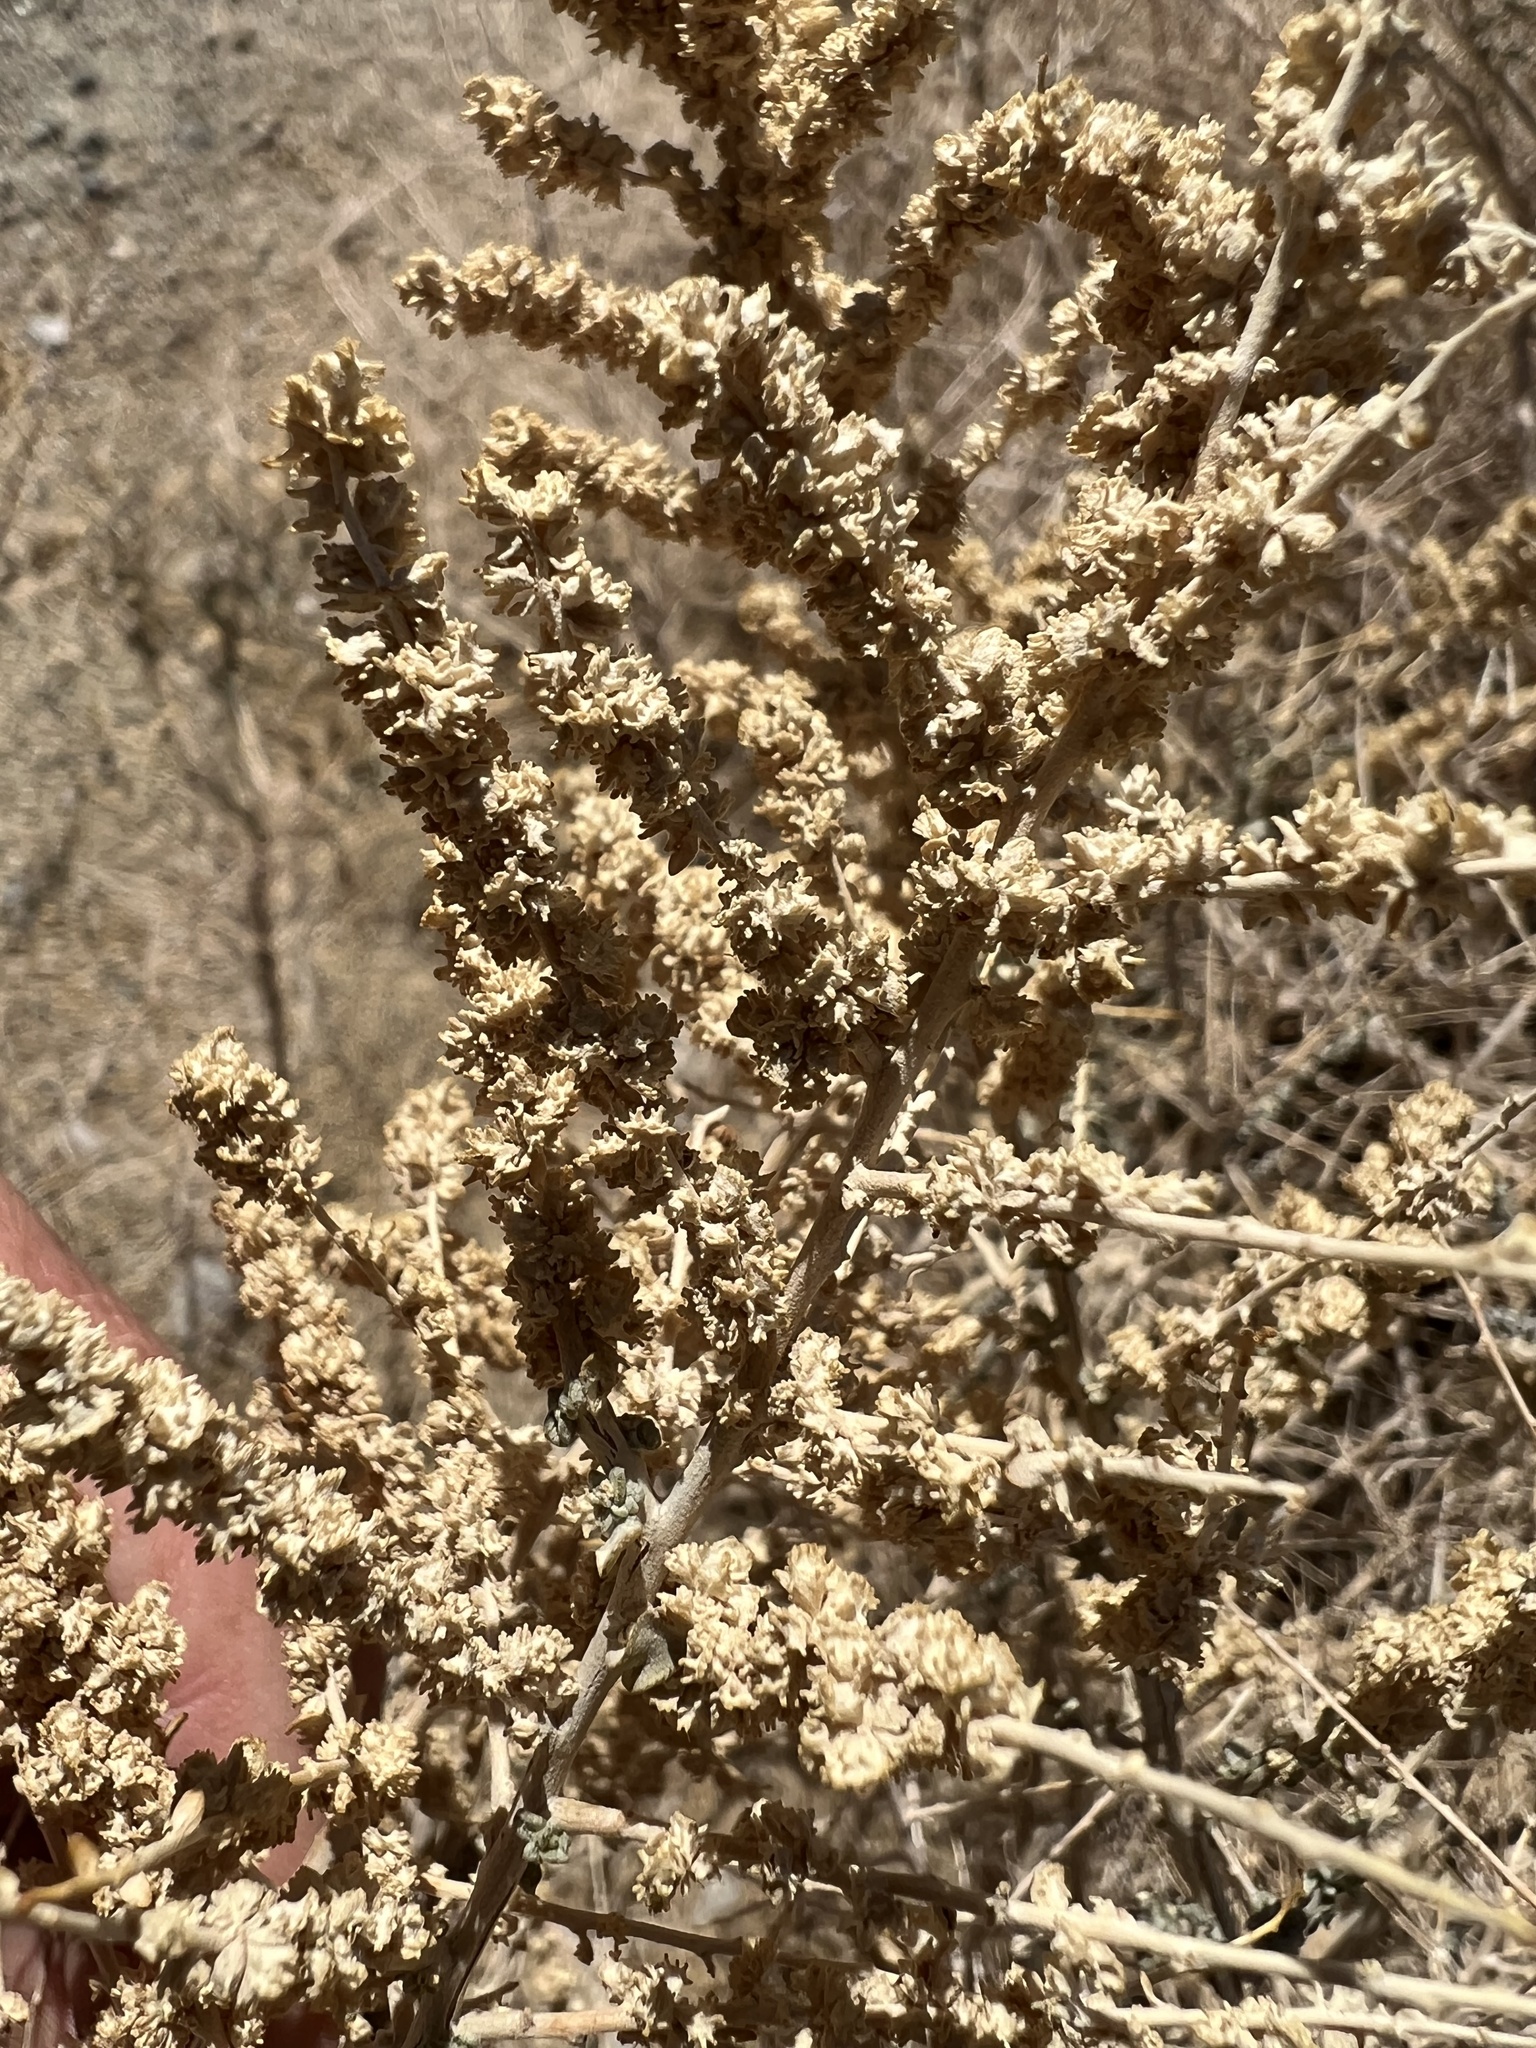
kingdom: Plantae
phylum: Tracheophyta
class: Magnoliopsida
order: Caryophyllales
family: Amaranthaceae
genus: Atriplex
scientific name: Atriplex polycarpa
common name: Desert saltbush
